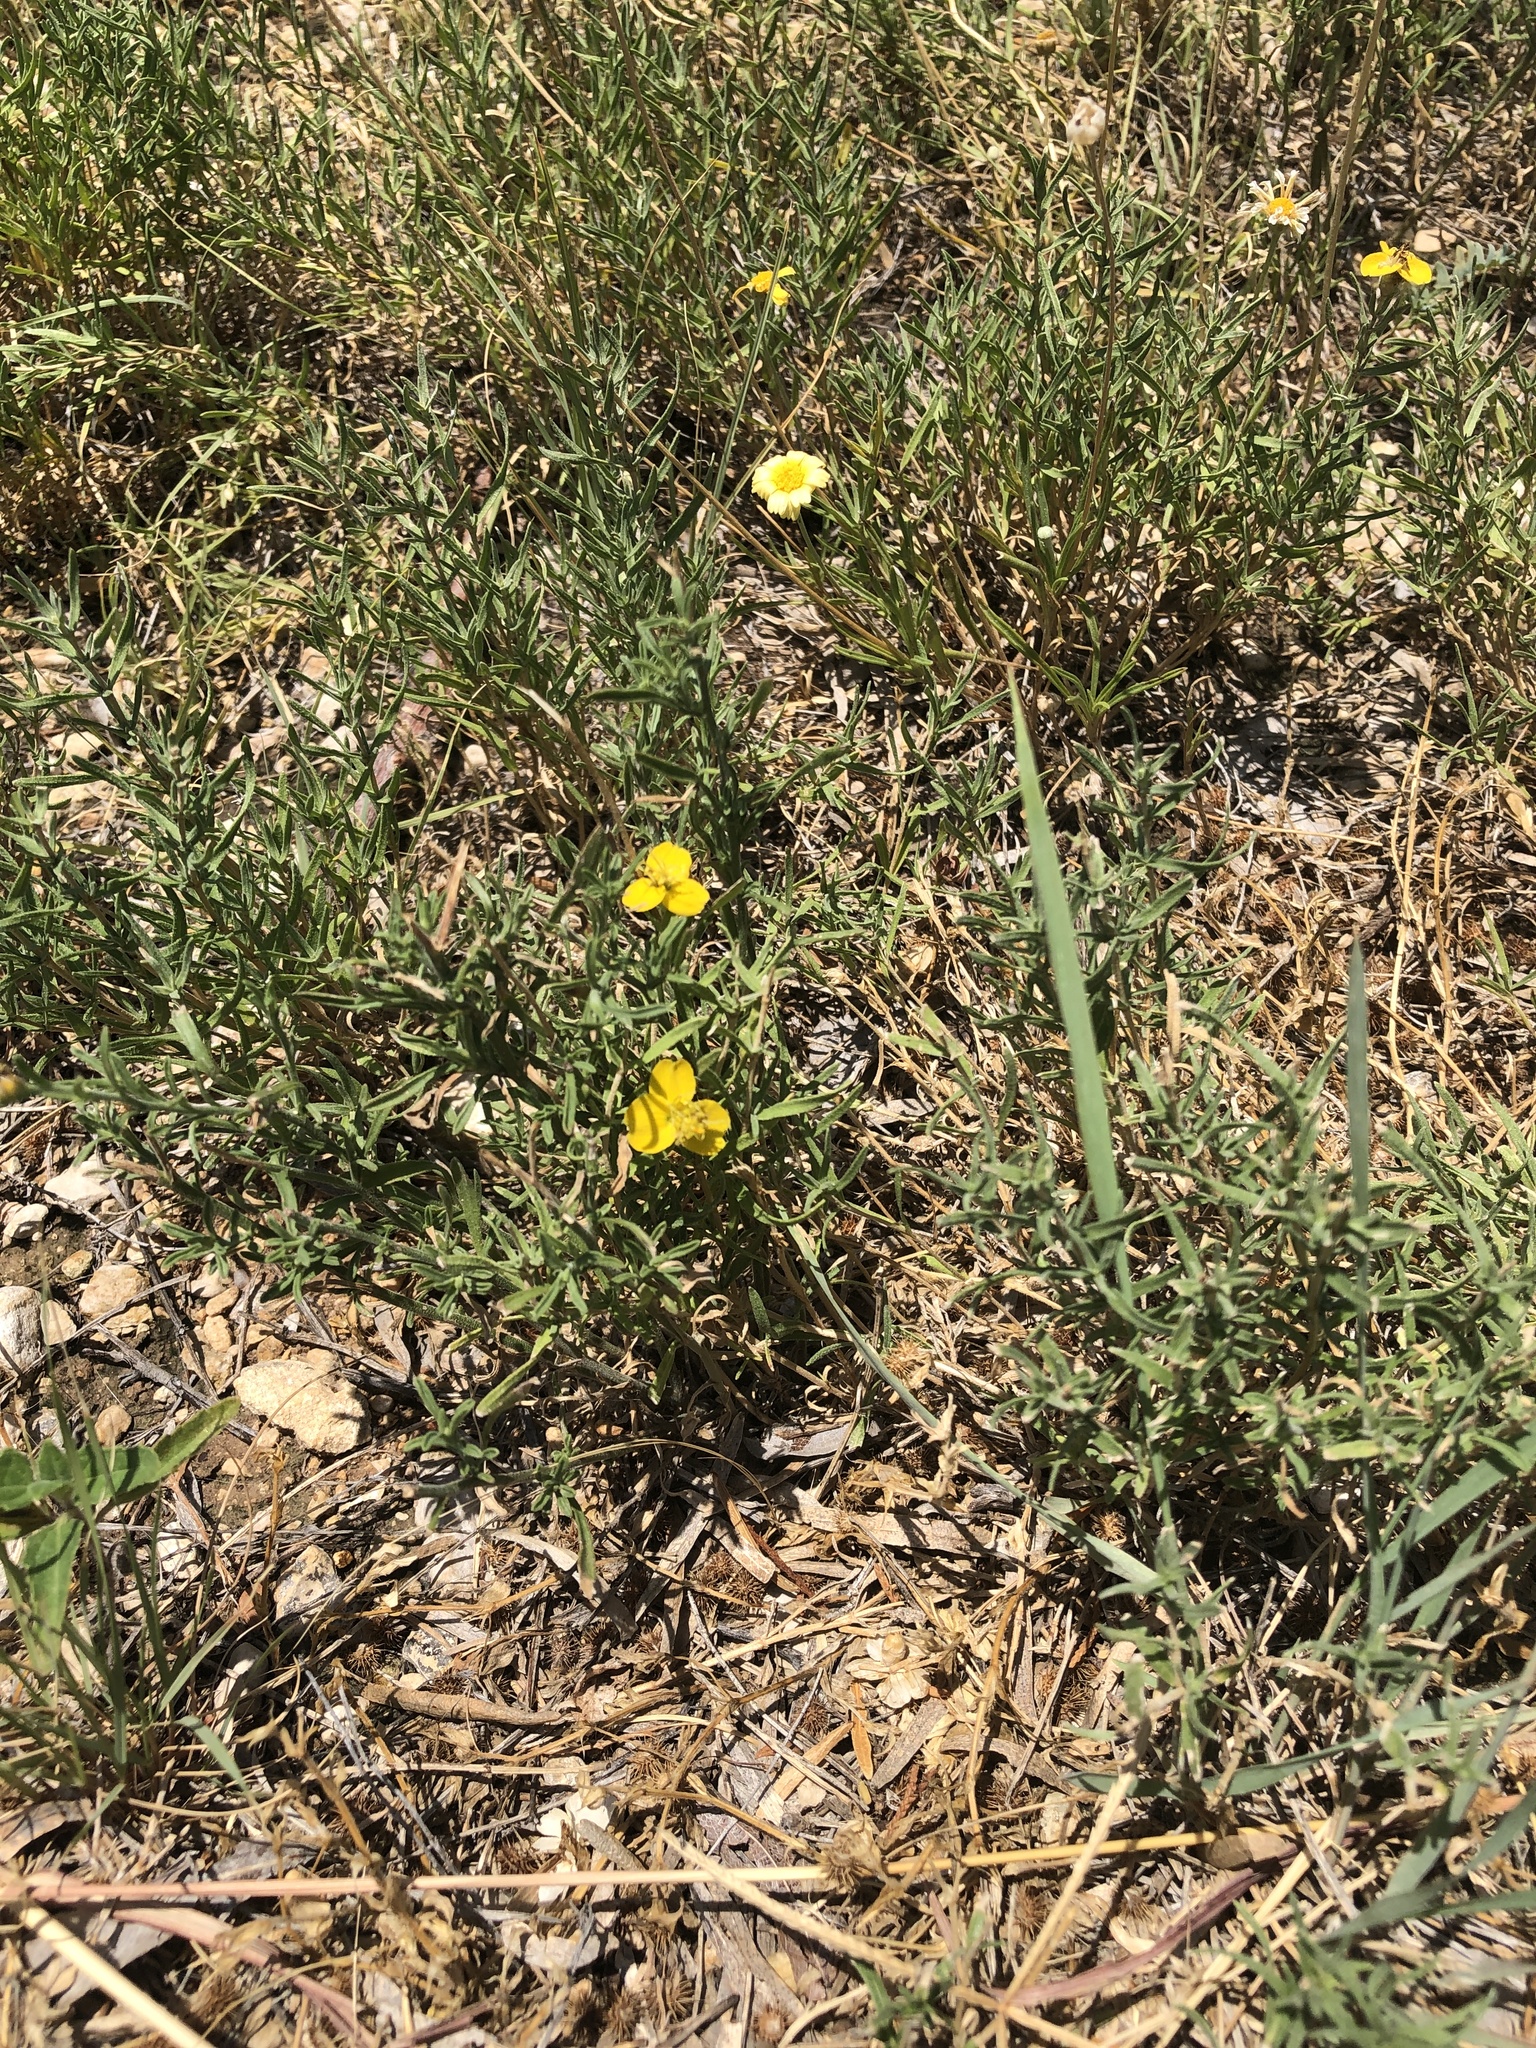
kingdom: Plantae
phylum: Tracheophyta
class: Magnoliopsida
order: Asterales
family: Asteraceae
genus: Zinnia
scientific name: Zinnia grandiflora
